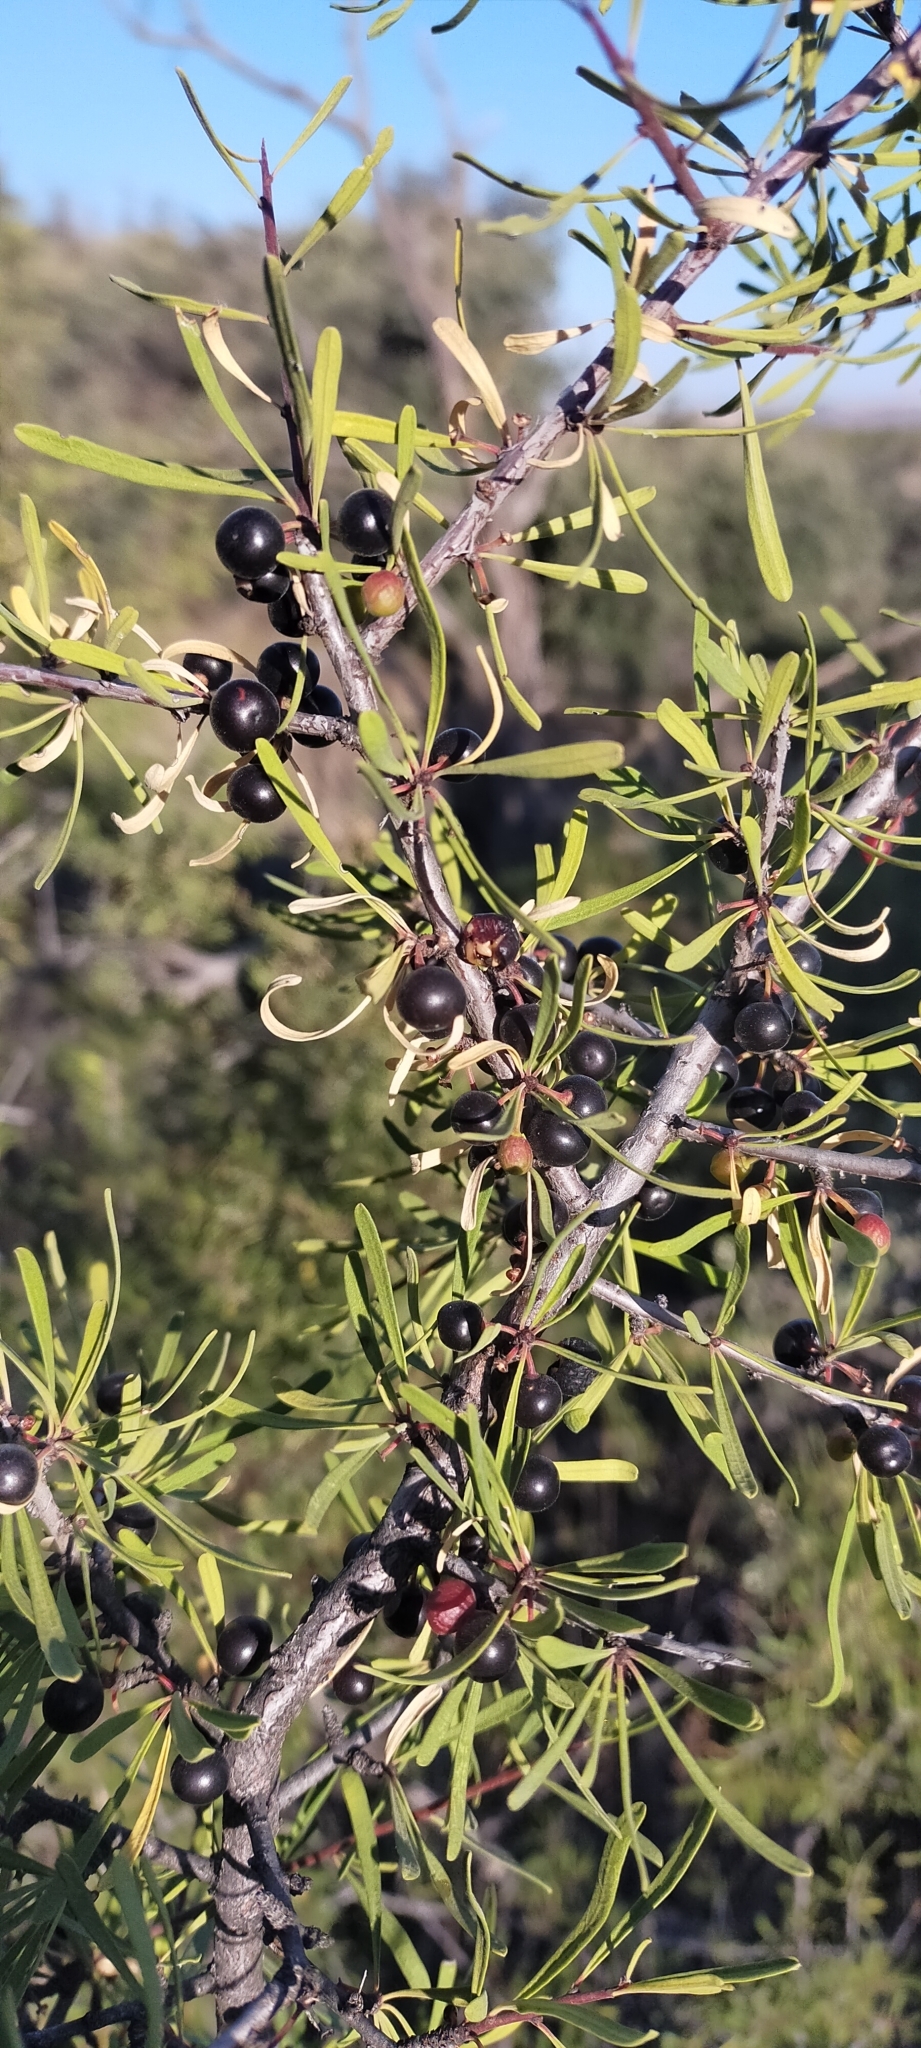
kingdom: Plantae
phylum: Tracheophyta
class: Magnoliopsida
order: Rosales
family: Rhamnaceae
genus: Rhamnus
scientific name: Rhamnus lycioides
